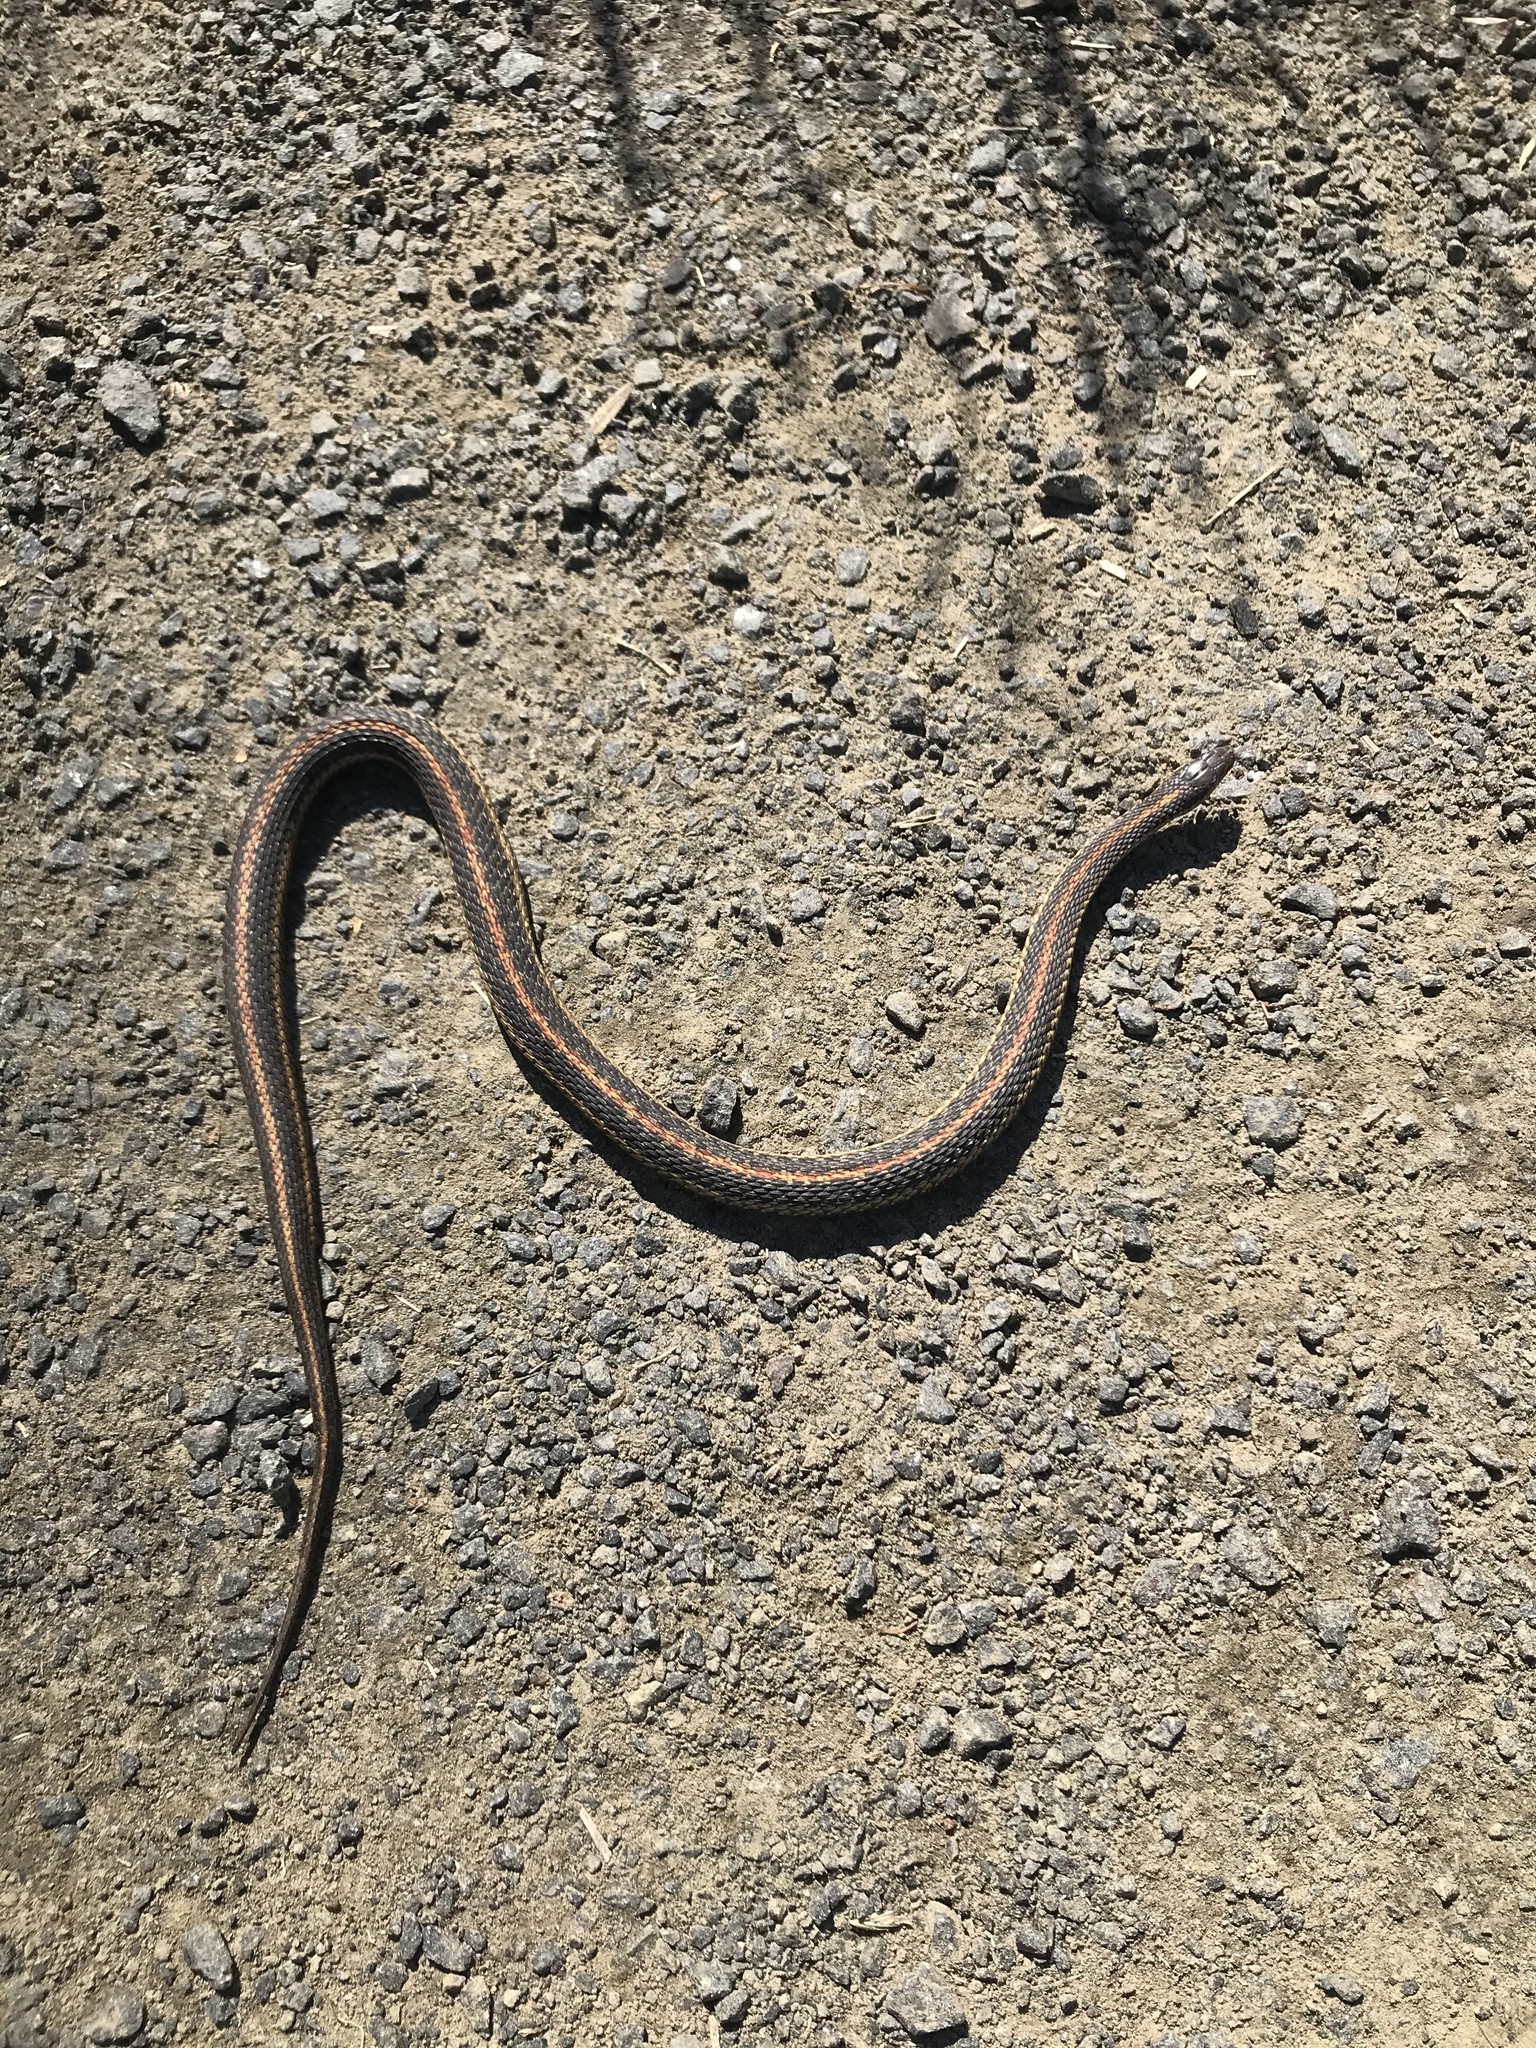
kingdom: Animalia
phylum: Chordata
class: Squamata
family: Colubridae
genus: Thamnophis
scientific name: Thamnophis ordinoides
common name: Northwestern garter snake
